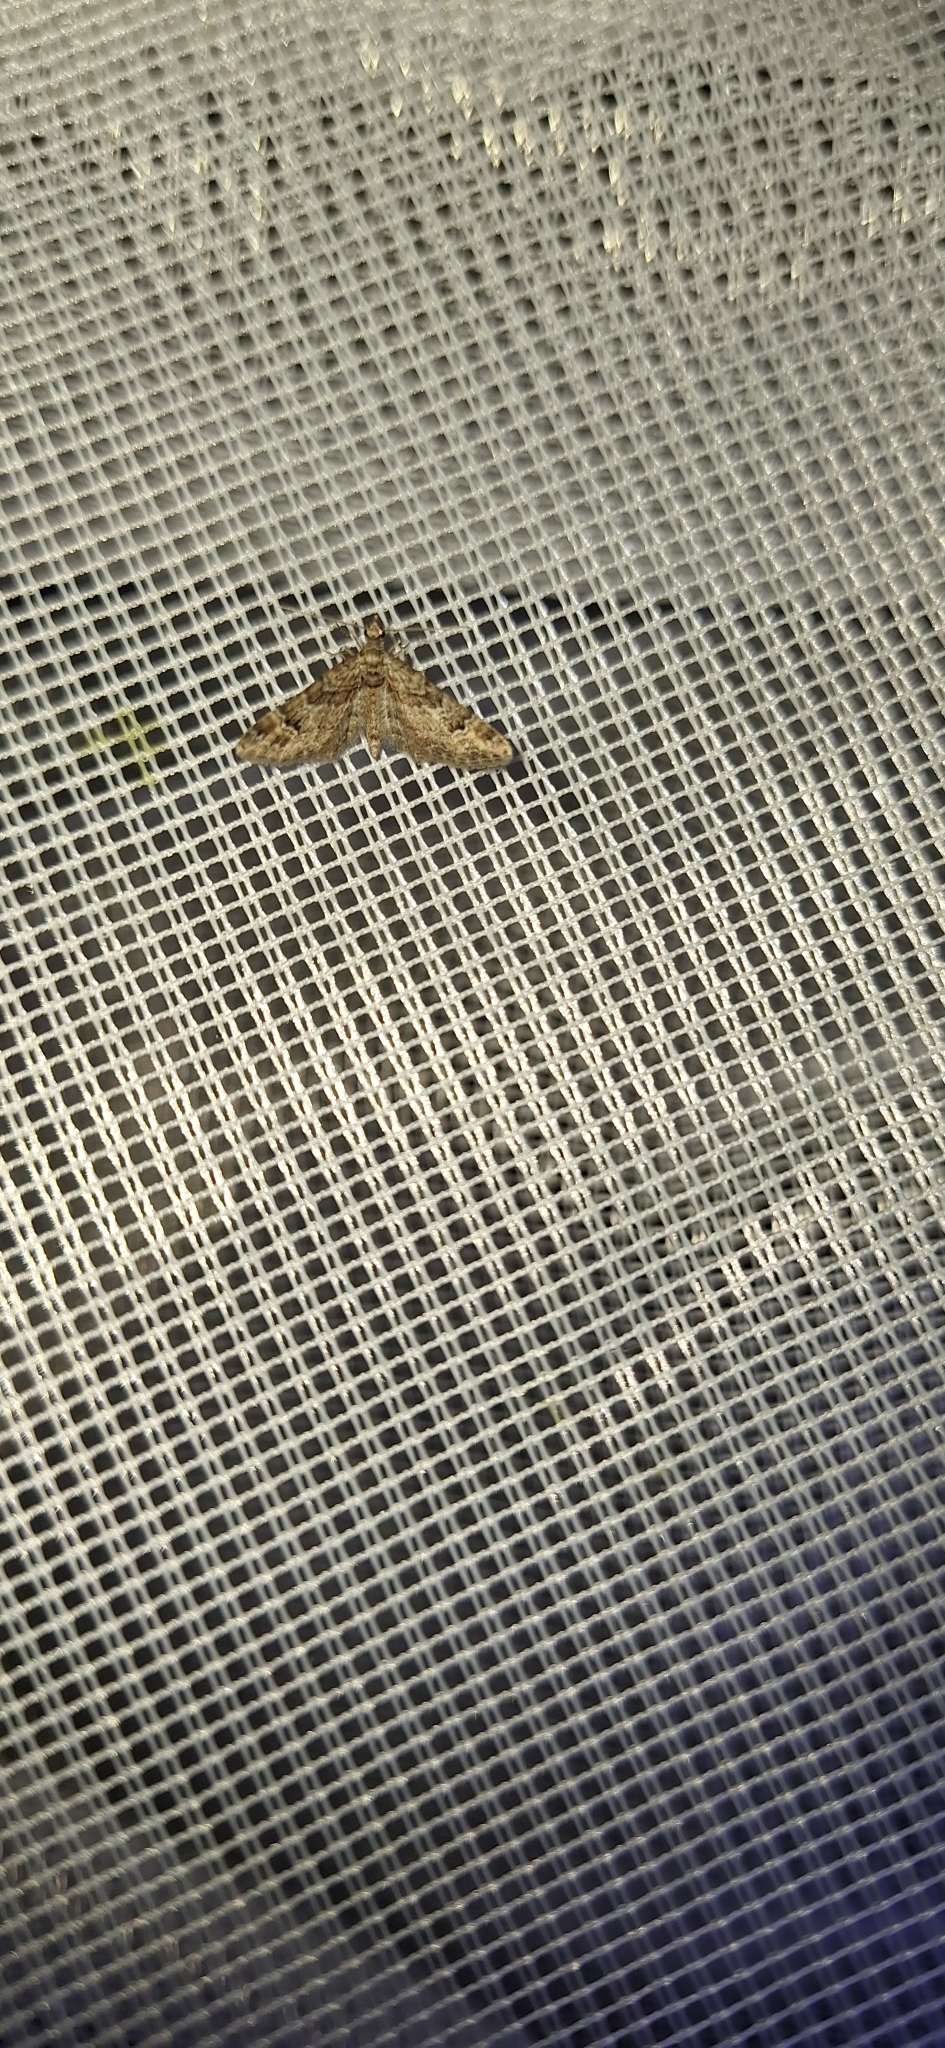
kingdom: Animalia
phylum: Arthropoda
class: Insecta
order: Lepidoptera
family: Geometridae
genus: Gymnoscelis
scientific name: Gymnoscelis rufifasciata
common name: Double-striped pug
